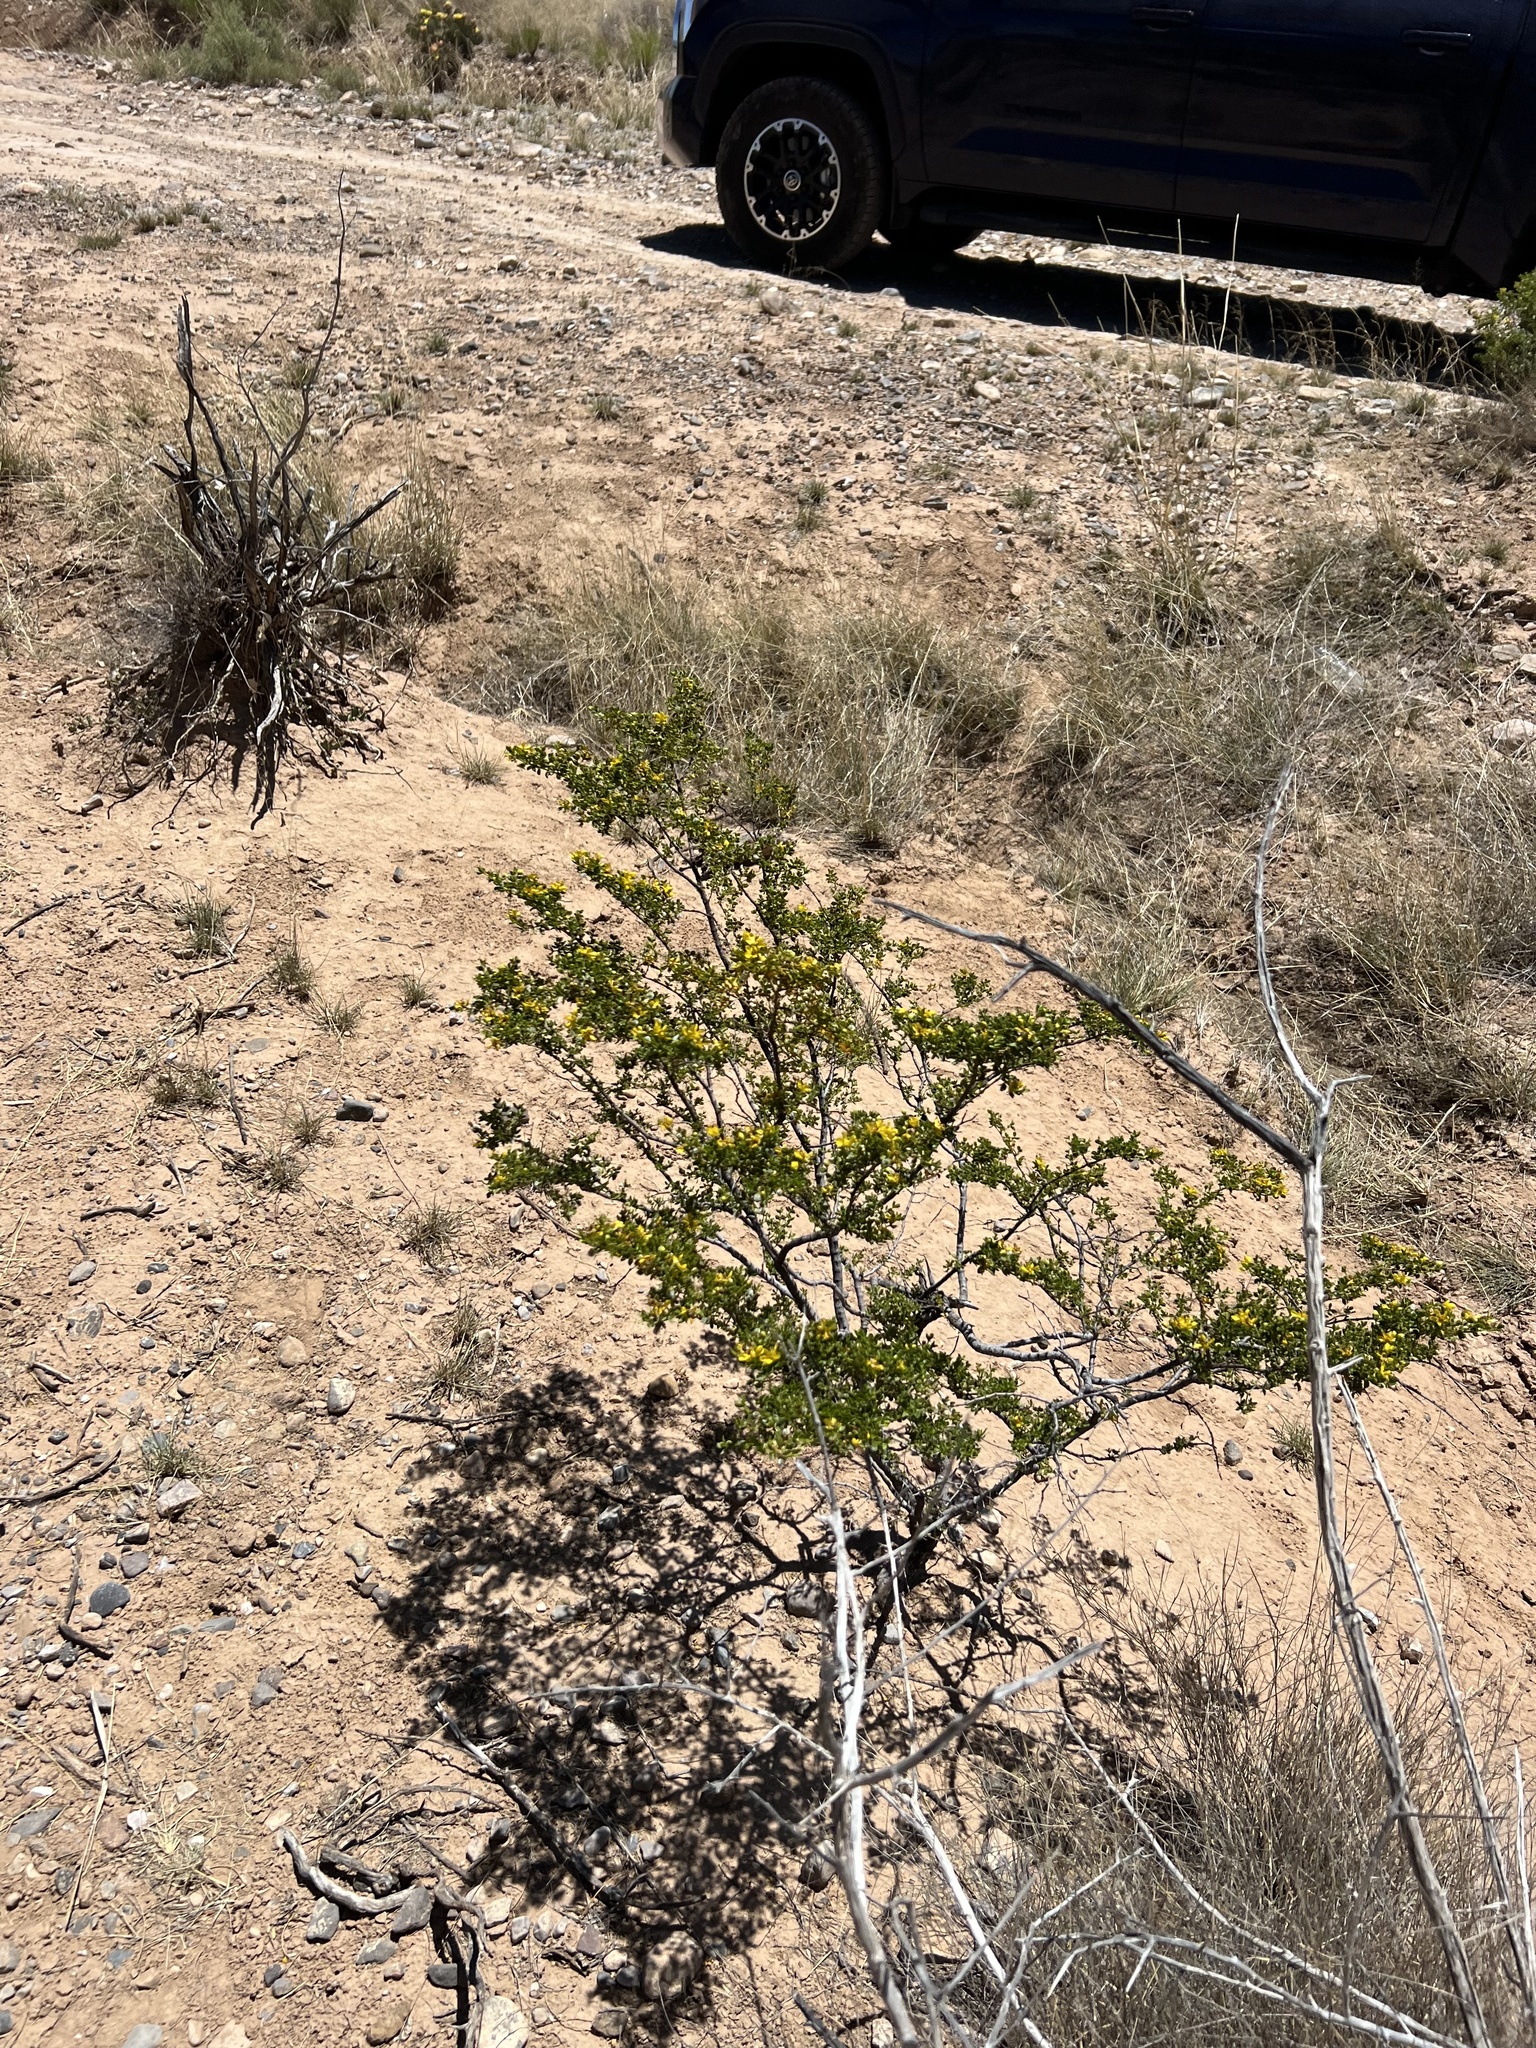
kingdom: Plantae
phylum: Tracheophyta
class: Magnoliopsida
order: Zygophyllales
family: Zygophyllaceae
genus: Larrea
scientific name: Larrea tridentata
